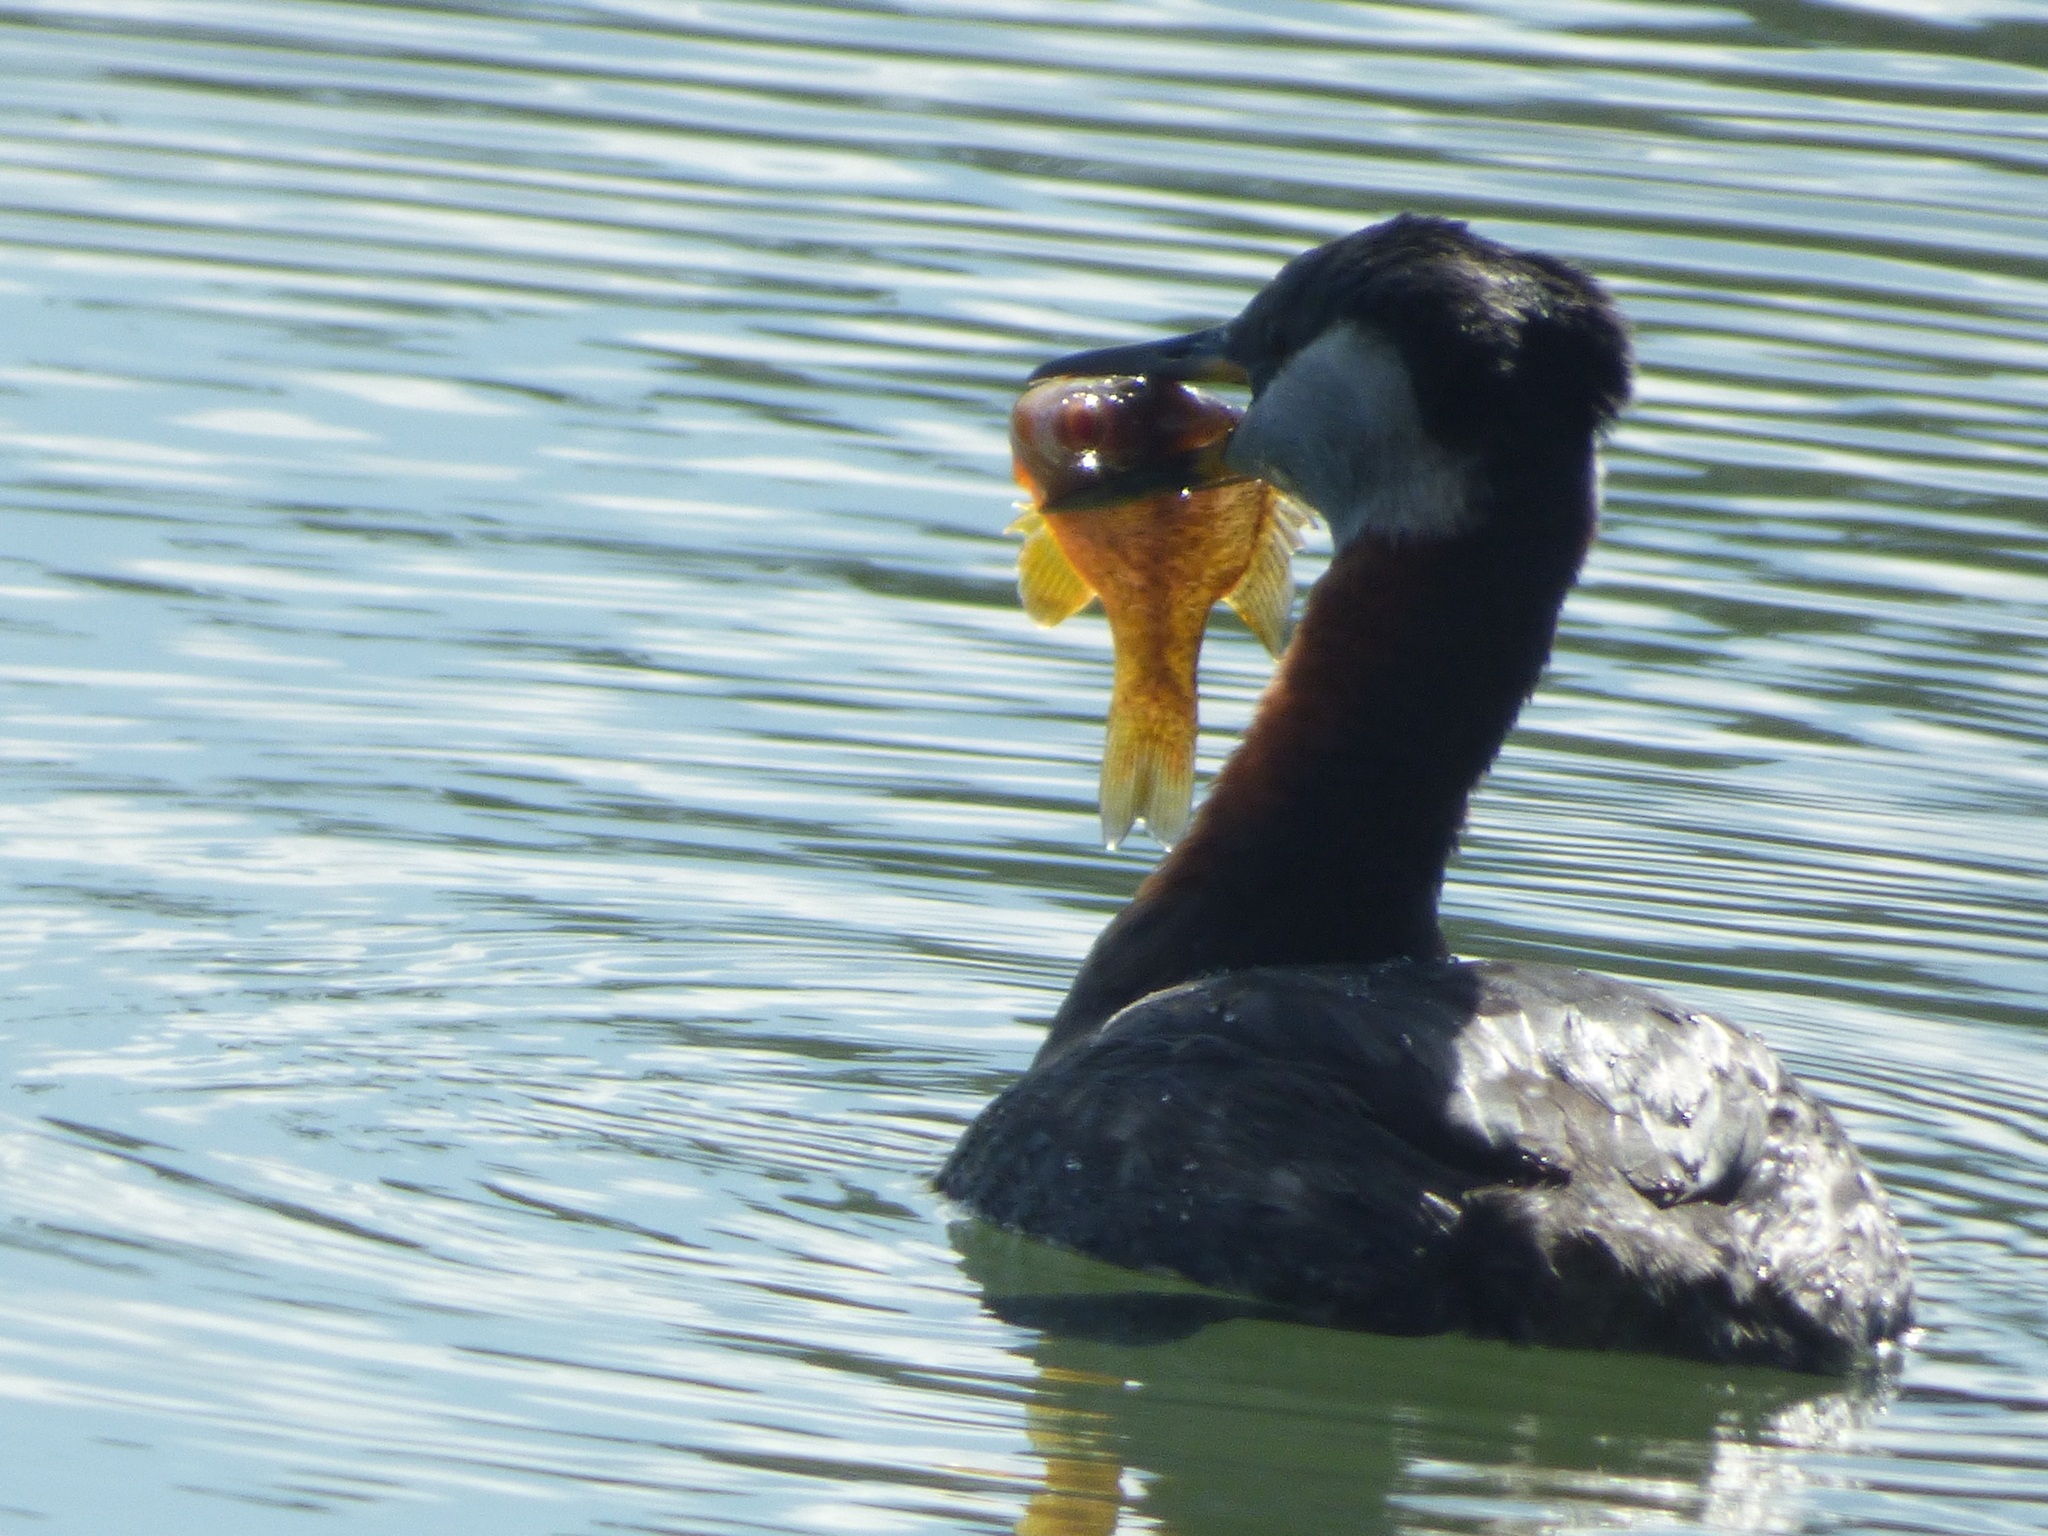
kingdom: Animalia
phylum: Chordata
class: Aves
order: Podicipediformes
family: Podicipedidae
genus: Podiceps
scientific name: Podiceps grisegena
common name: Red-necked grebe
